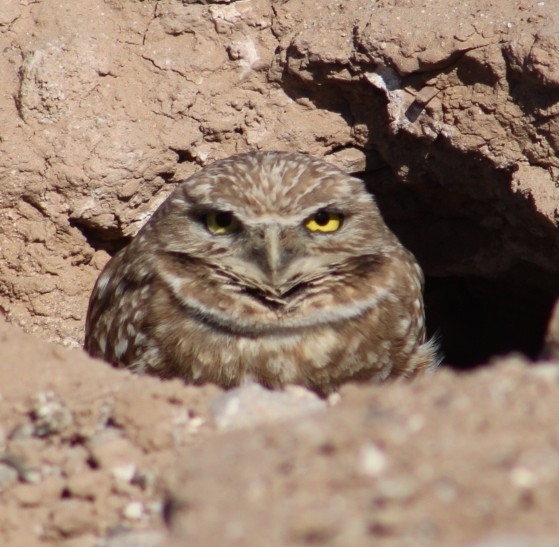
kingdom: Animalia
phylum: Chordata
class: Aves
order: Strigiformes
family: Strigidae
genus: Athene
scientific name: Athene cunicularia
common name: Burrowing owl
